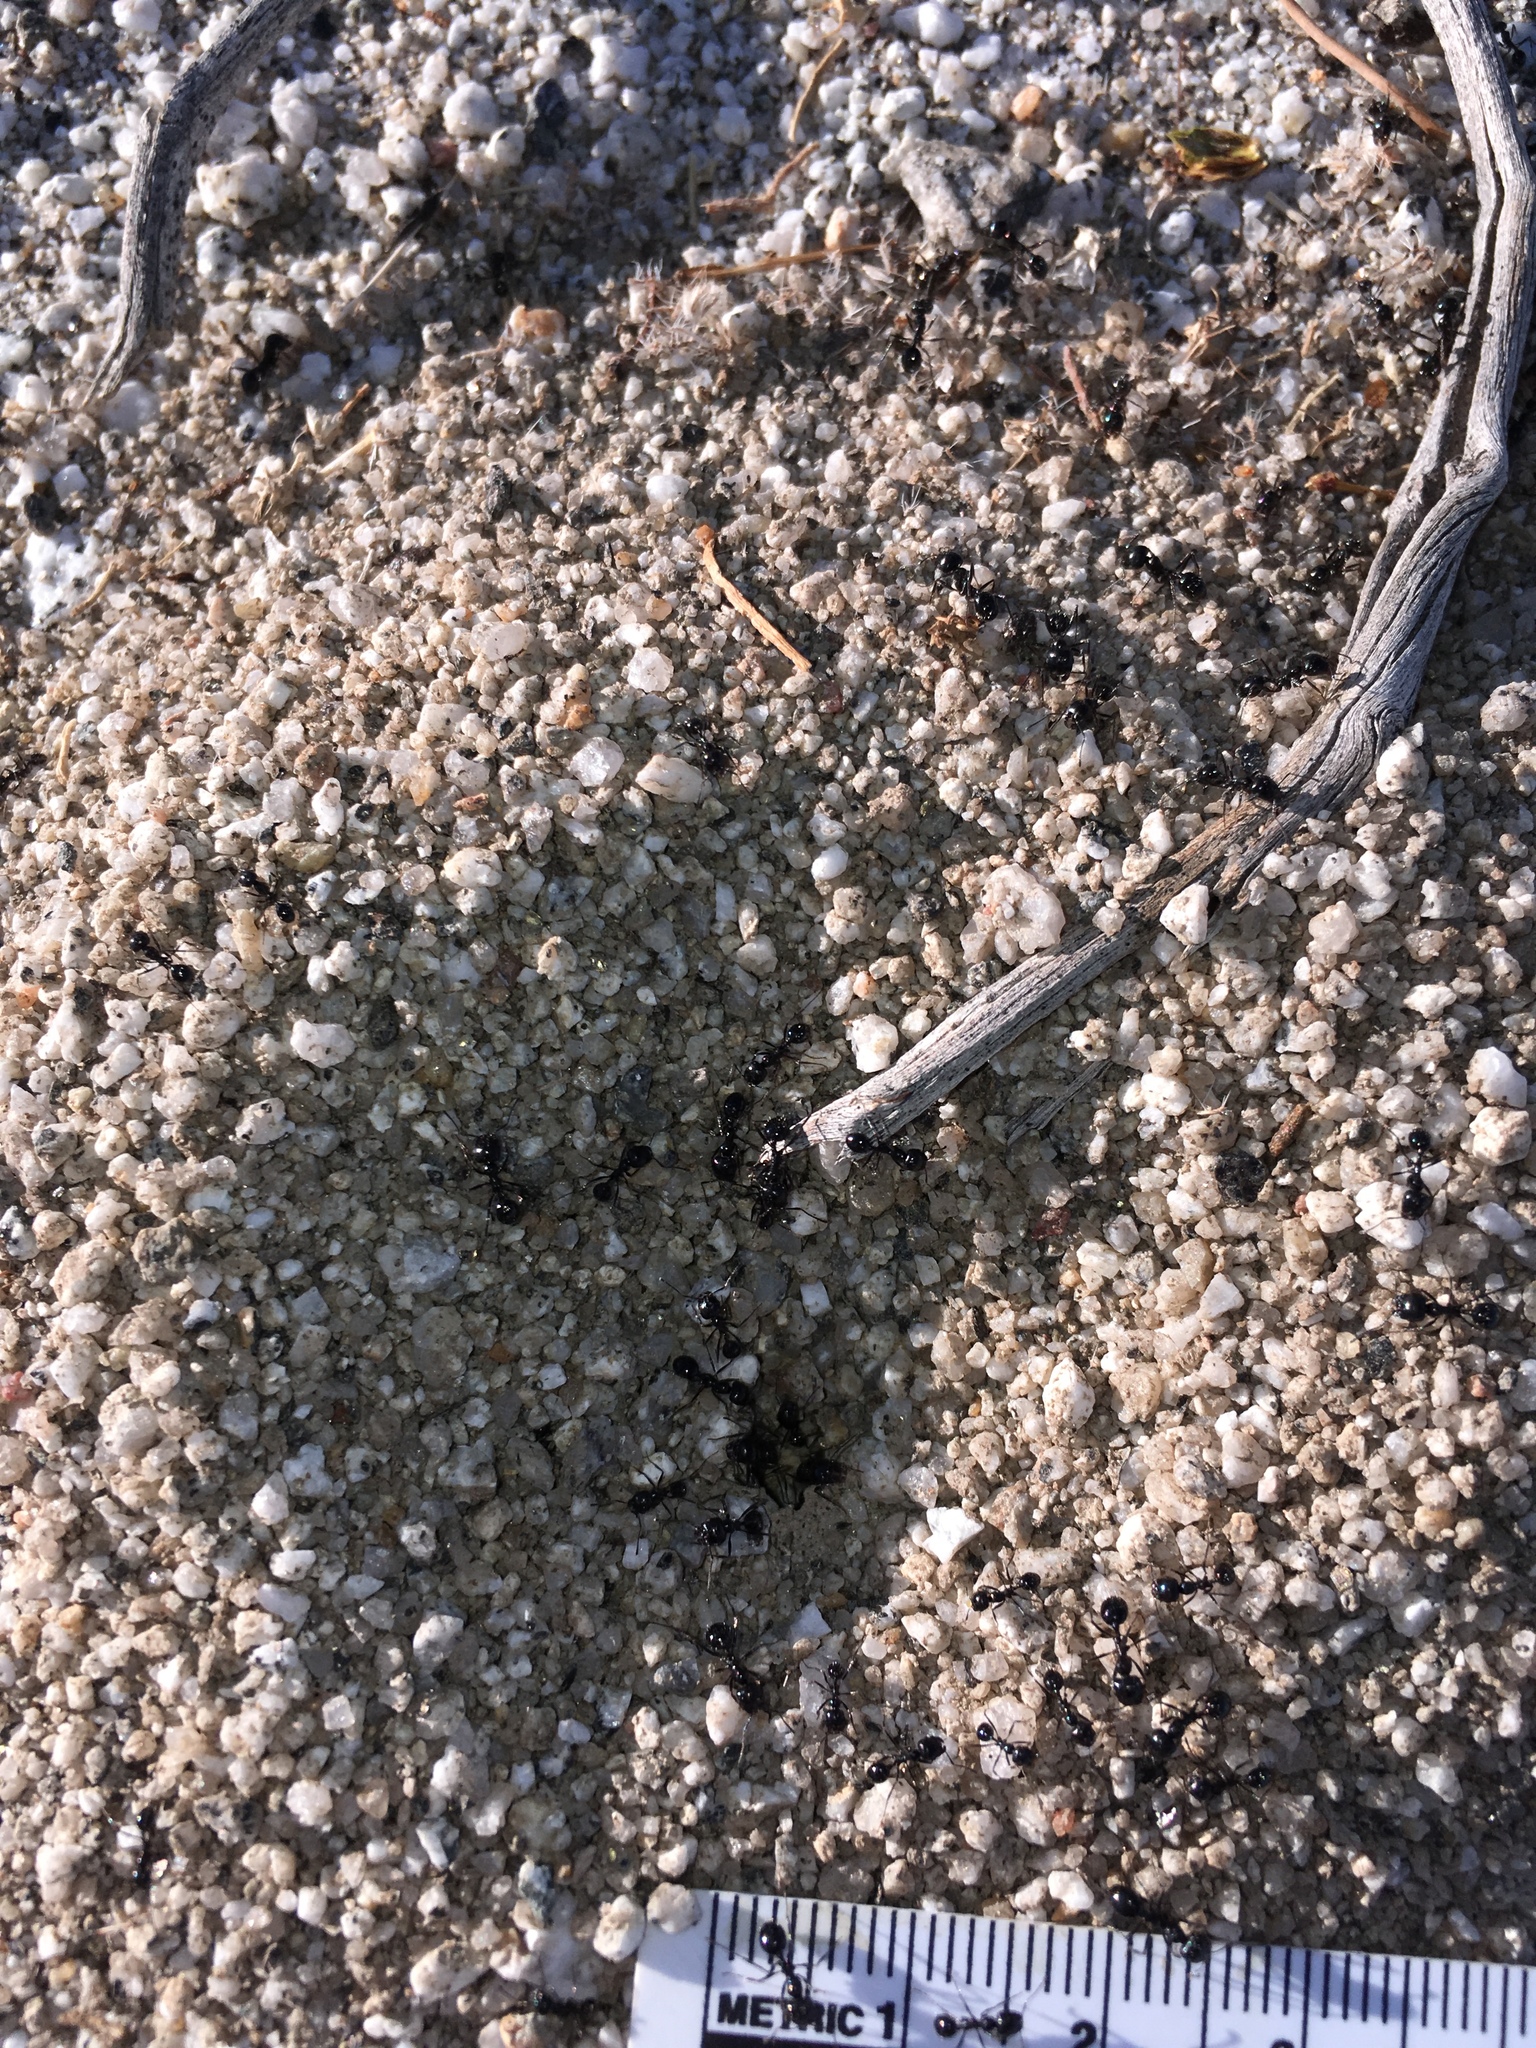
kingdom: Animalia
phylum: Arthropoda
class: Insecta
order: Hymenoptera
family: Formicidae
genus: Messor
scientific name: Messor pergandei
